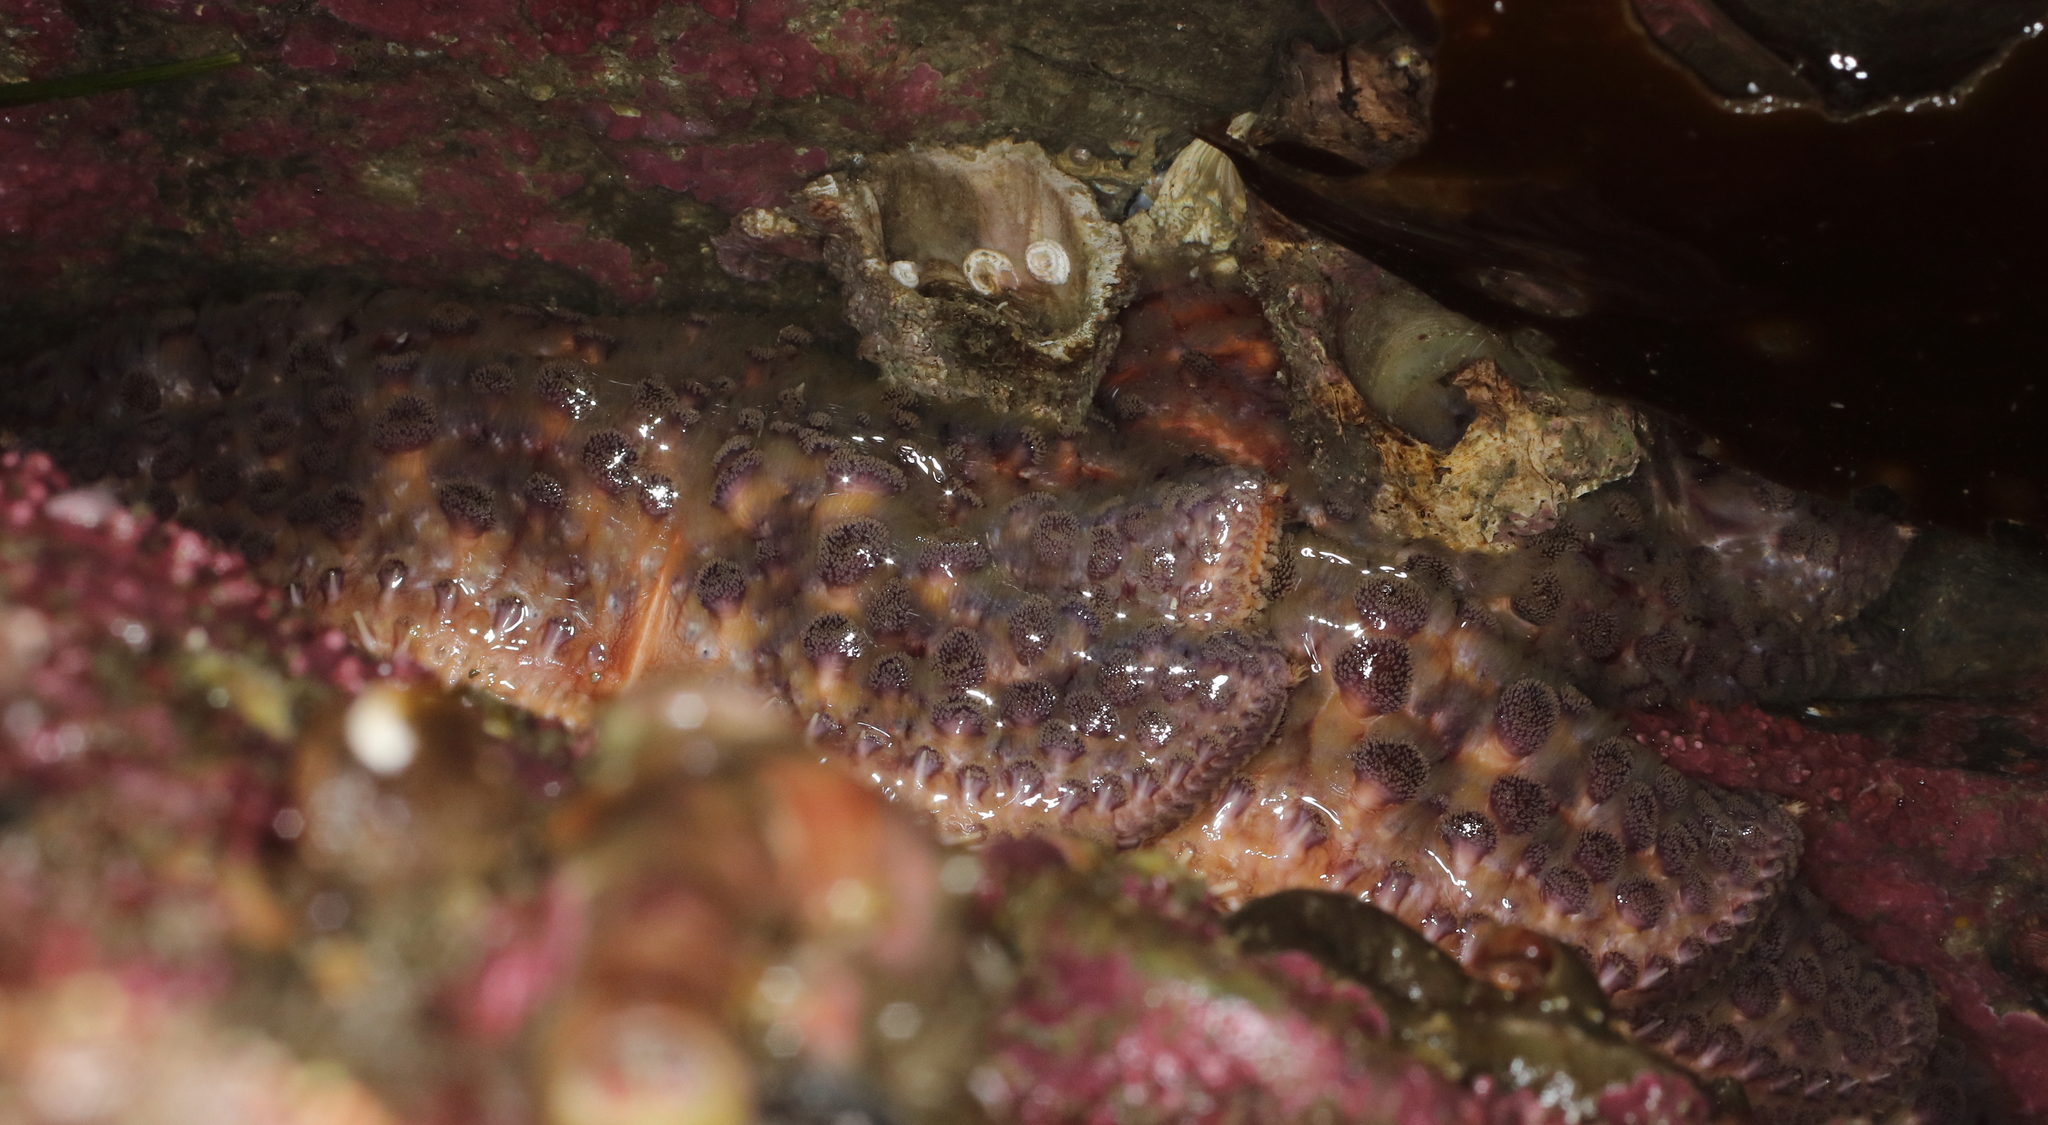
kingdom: Animalia
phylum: Echinodermata
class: Asteroidea
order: Forcipulatida
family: Asteriidae
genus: Pycnopodia
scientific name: Pycnopodia helianthoides
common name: Rag mop
